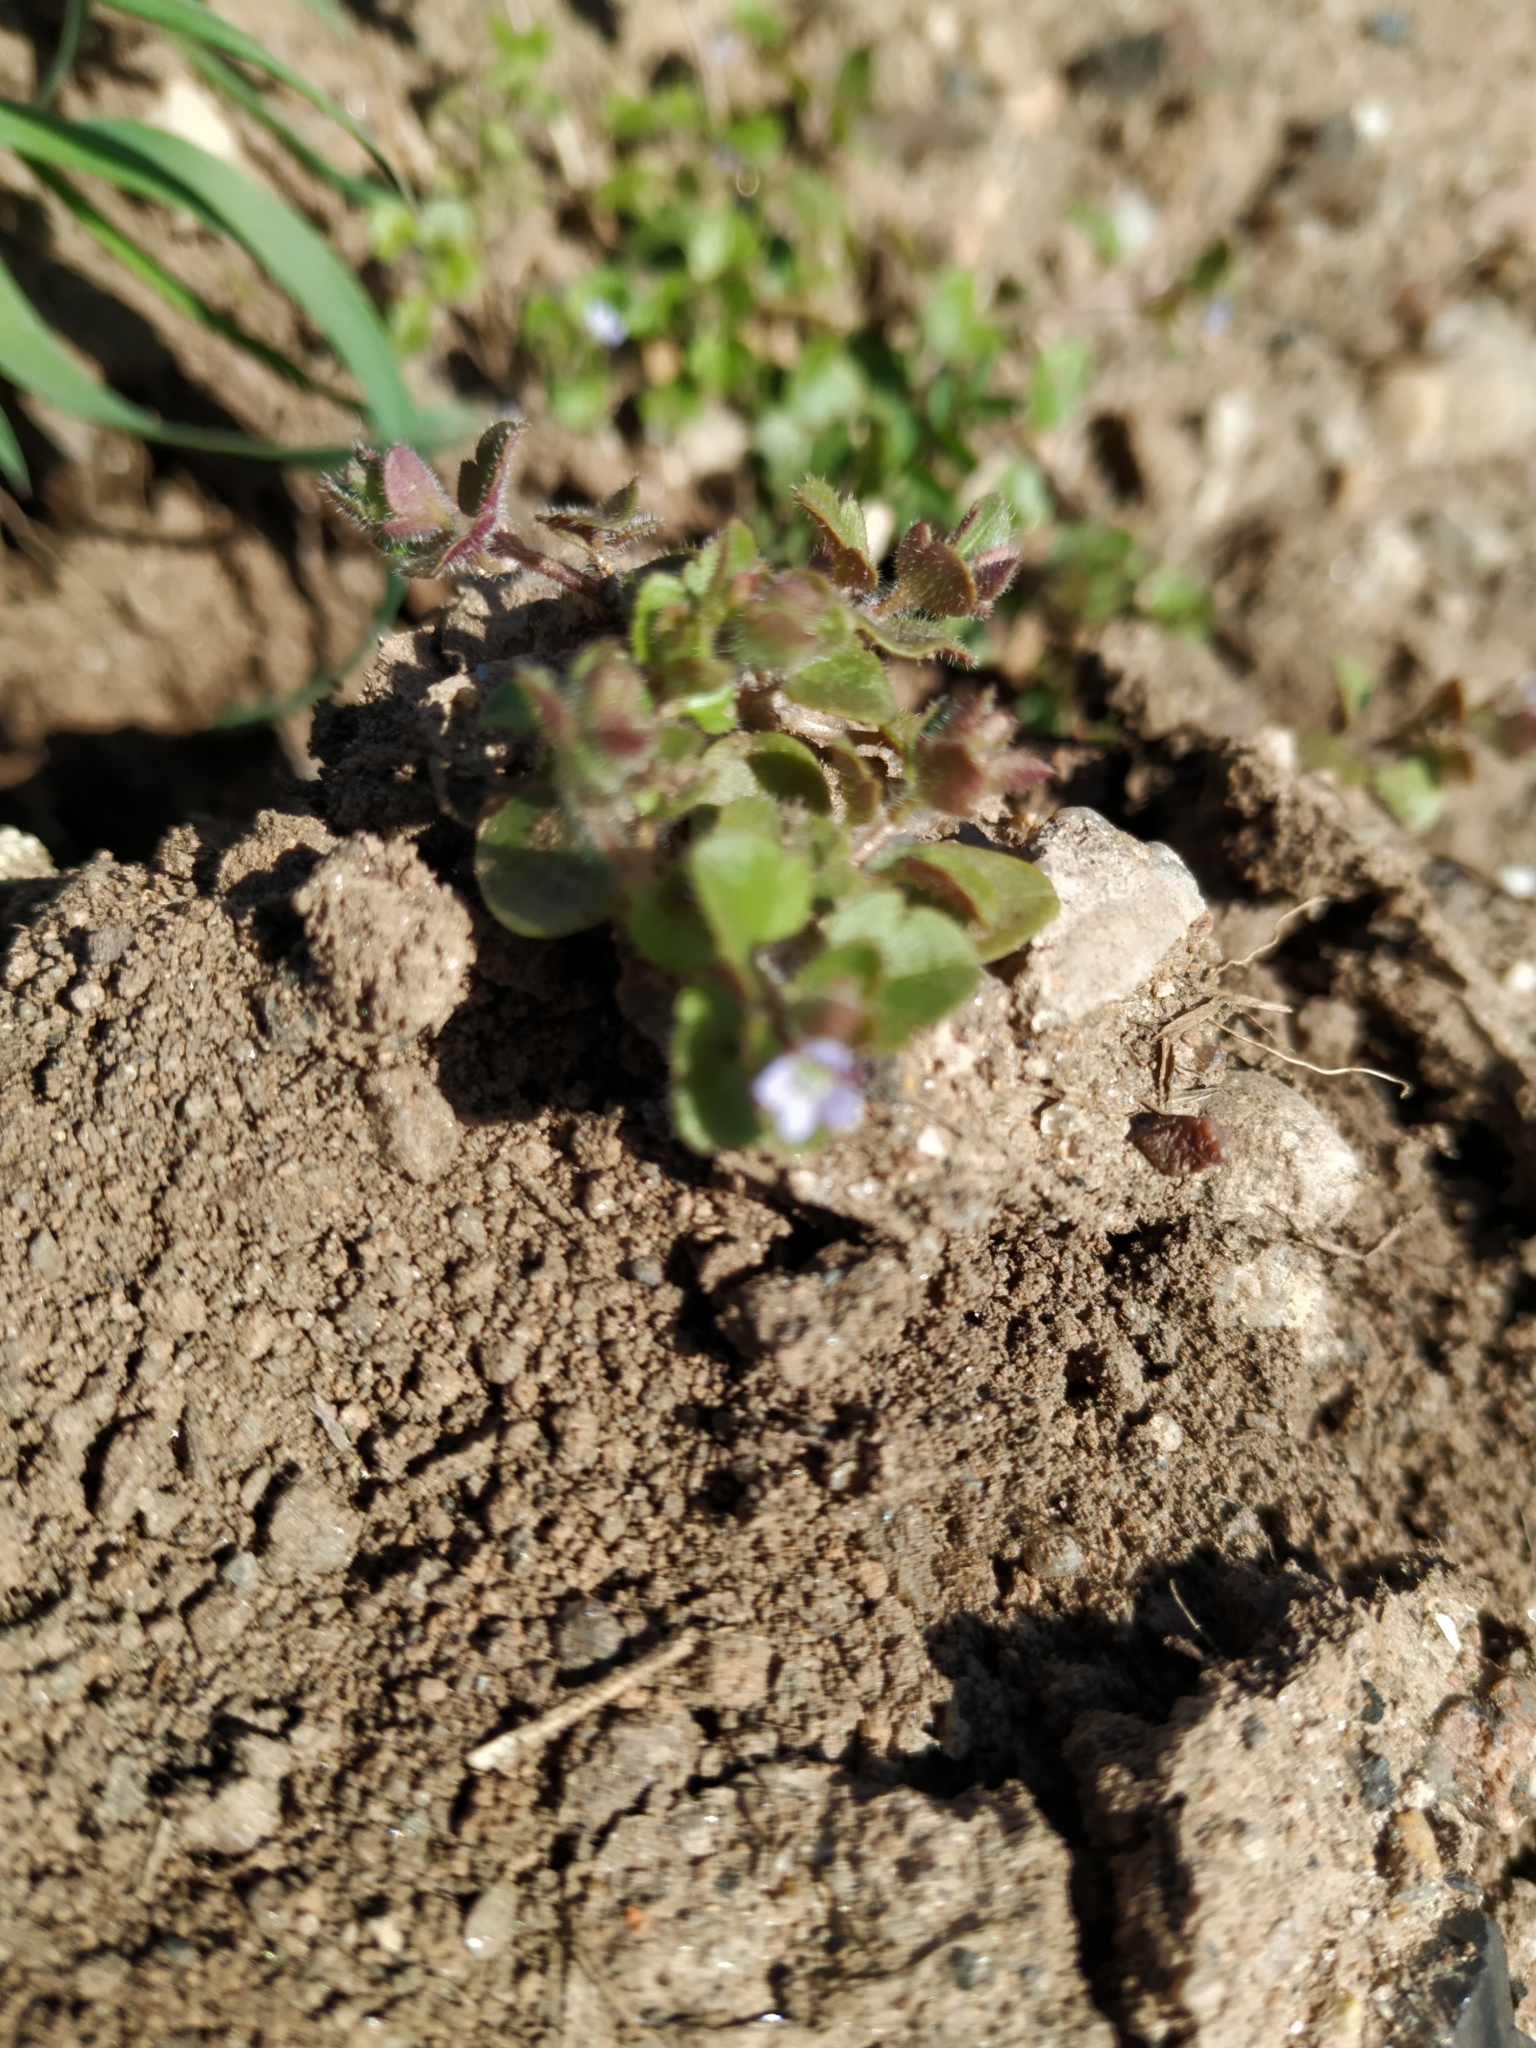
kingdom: Plantae
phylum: Tracheophyta
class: Magnoliopsida
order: Lamiales
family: Plantaginaceae
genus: Veronica
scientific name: Veronica hederifolia
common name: Ivy-leaved speedwell
